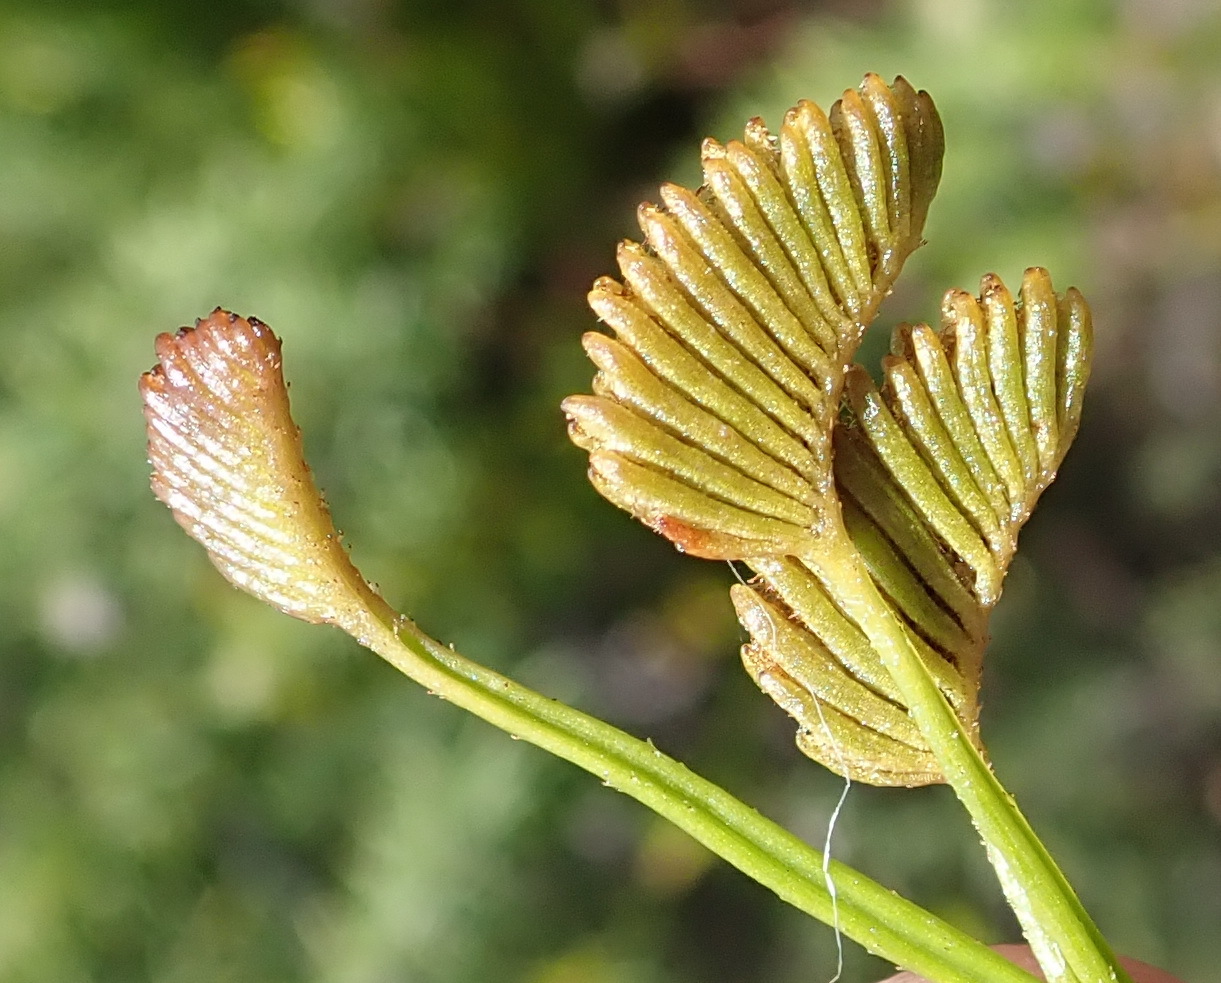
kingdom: Plantae
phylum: Tracheophyta
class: Polypodiopsida
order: Schizaeales
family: Schizaeaceae
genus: Schizaea
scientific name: Schizaea pectinata
